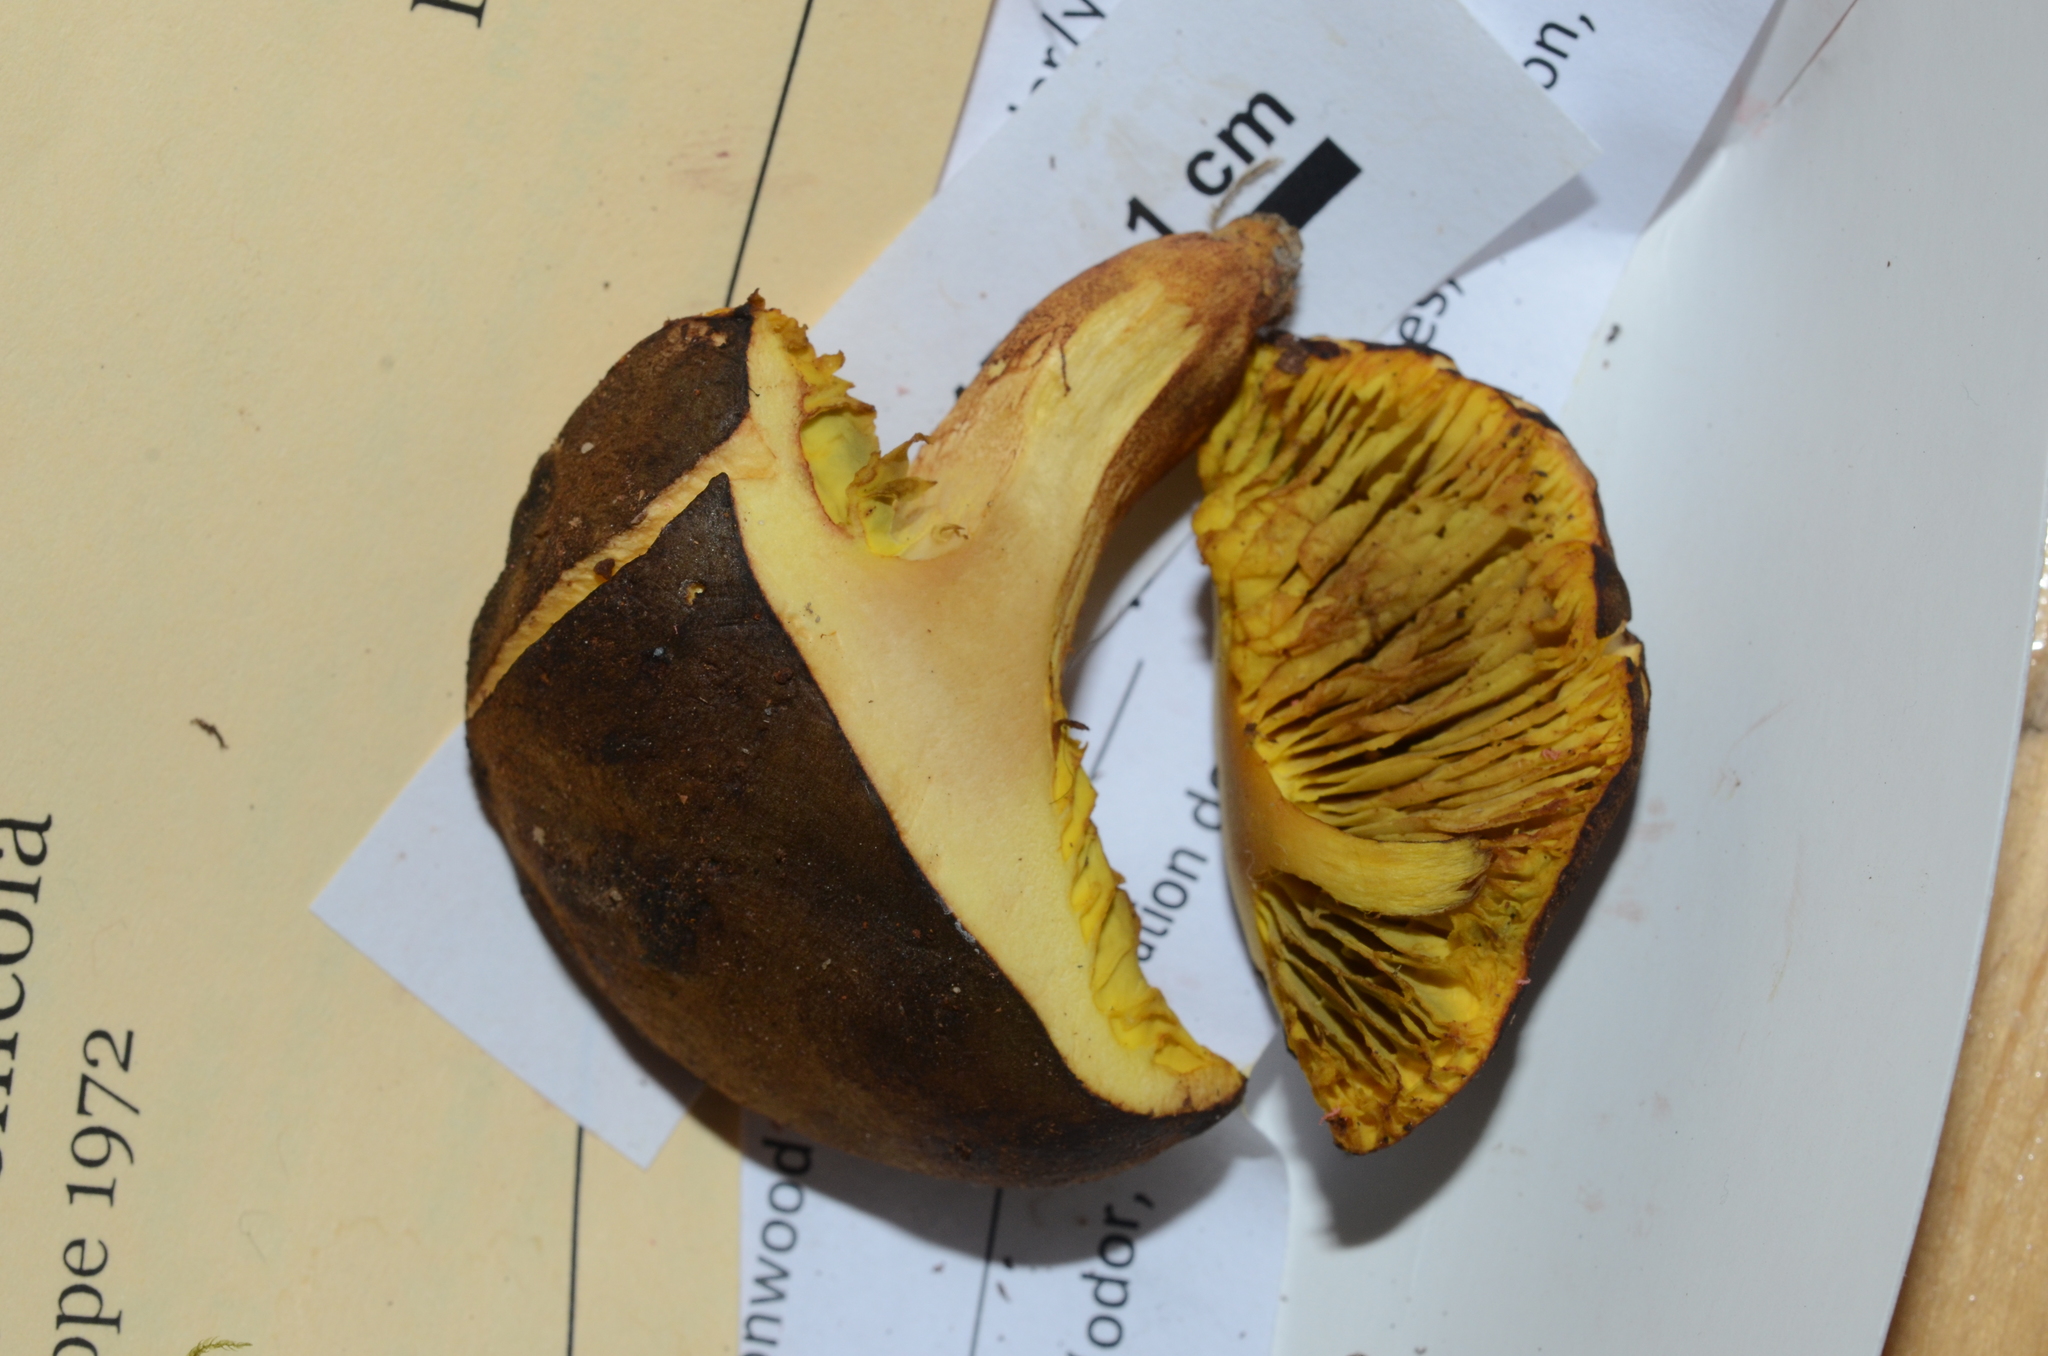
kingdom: Fungi
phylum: Basidiomycota
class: Agaricomycetes
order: Boletales
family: Boletaceae
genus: Phylloporus
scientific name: Phylloporus arenicola
